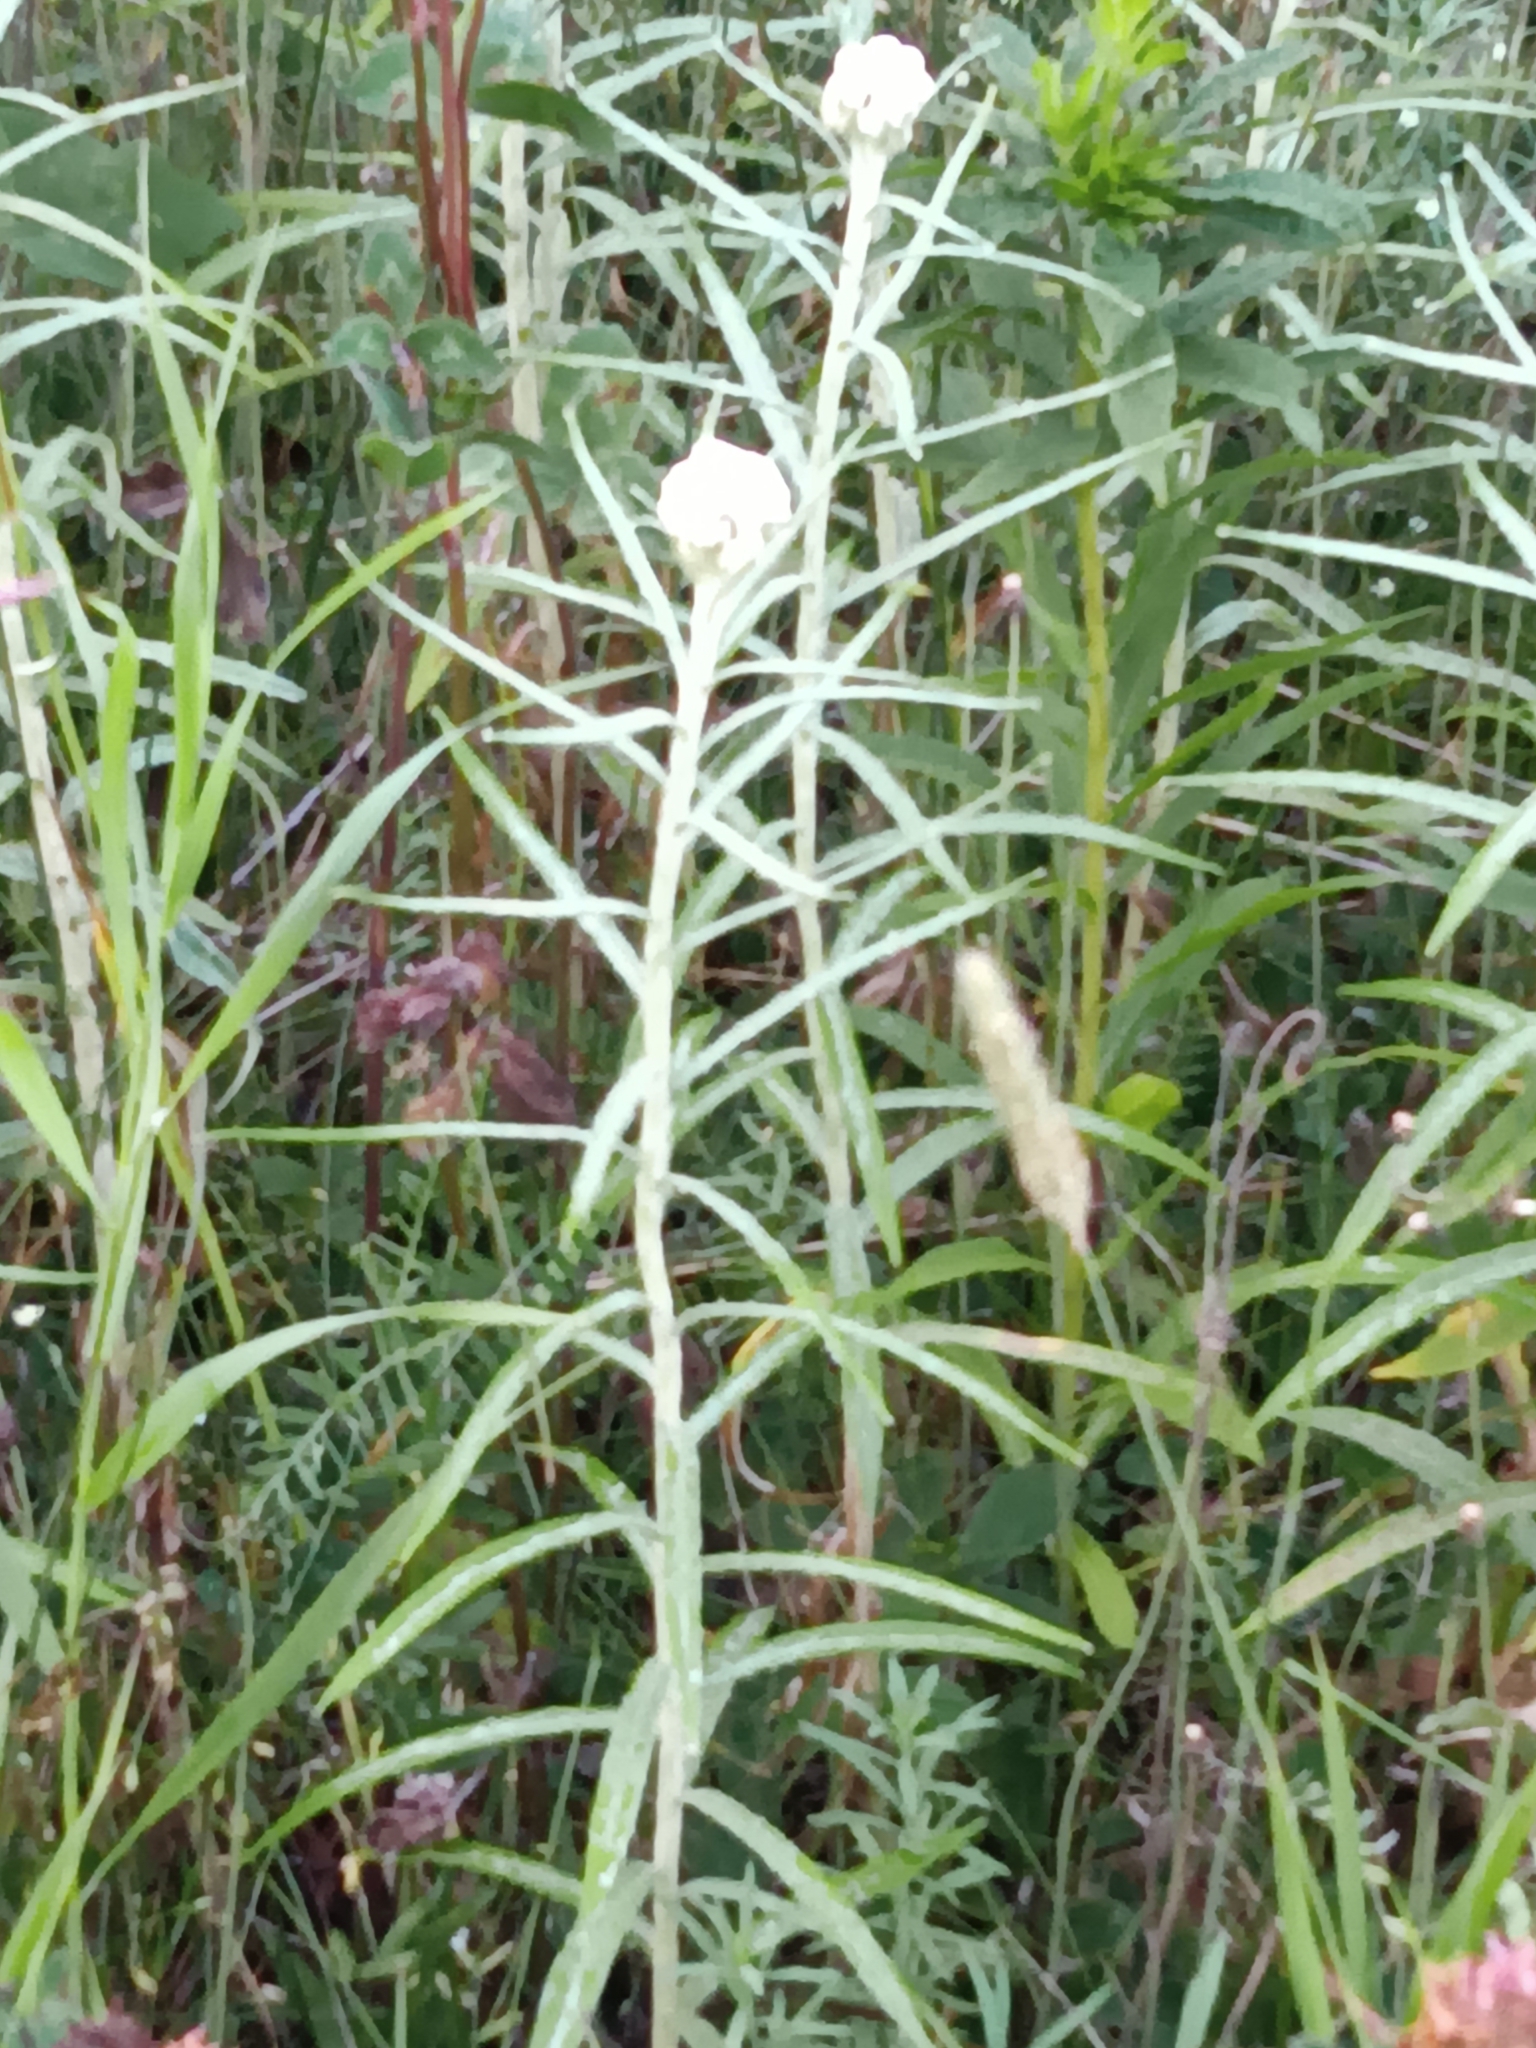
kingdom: Plantae
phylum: Tracheophyta
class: Magnoliopsida
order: Asterales
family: Asteraceae
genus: Anaphalis
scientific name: Anaphalis margaritacea
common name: Pearly everlasting
